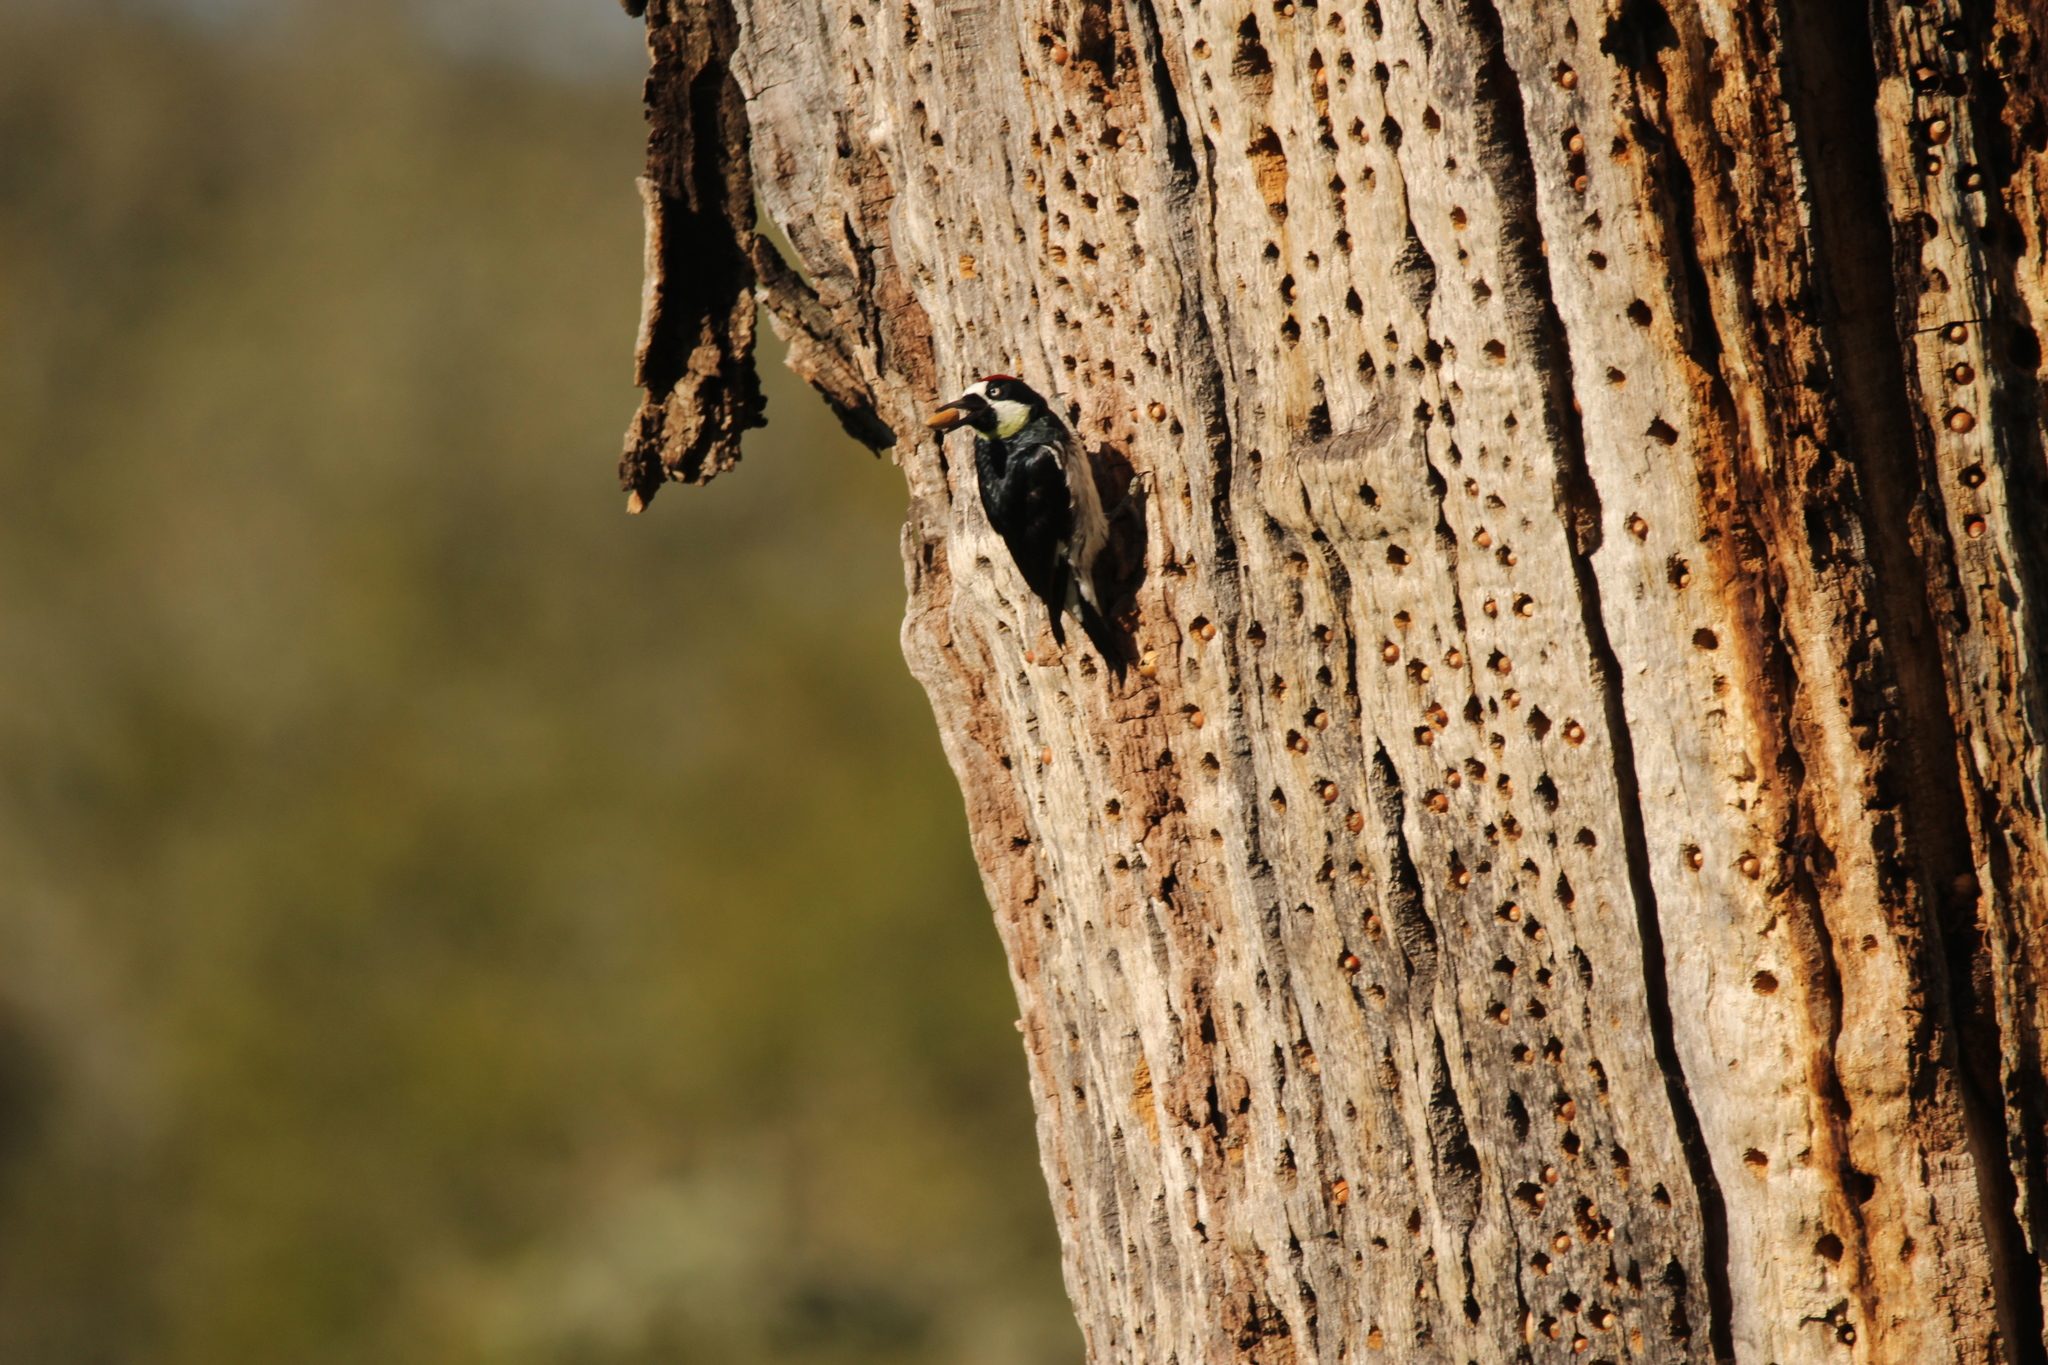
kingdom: Animalia
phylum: Chordata
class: Aves
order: Piciformes
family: Picidae
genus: Melanerpes
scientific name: Melanerpes formicivorus
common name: Acorn woodpecker
